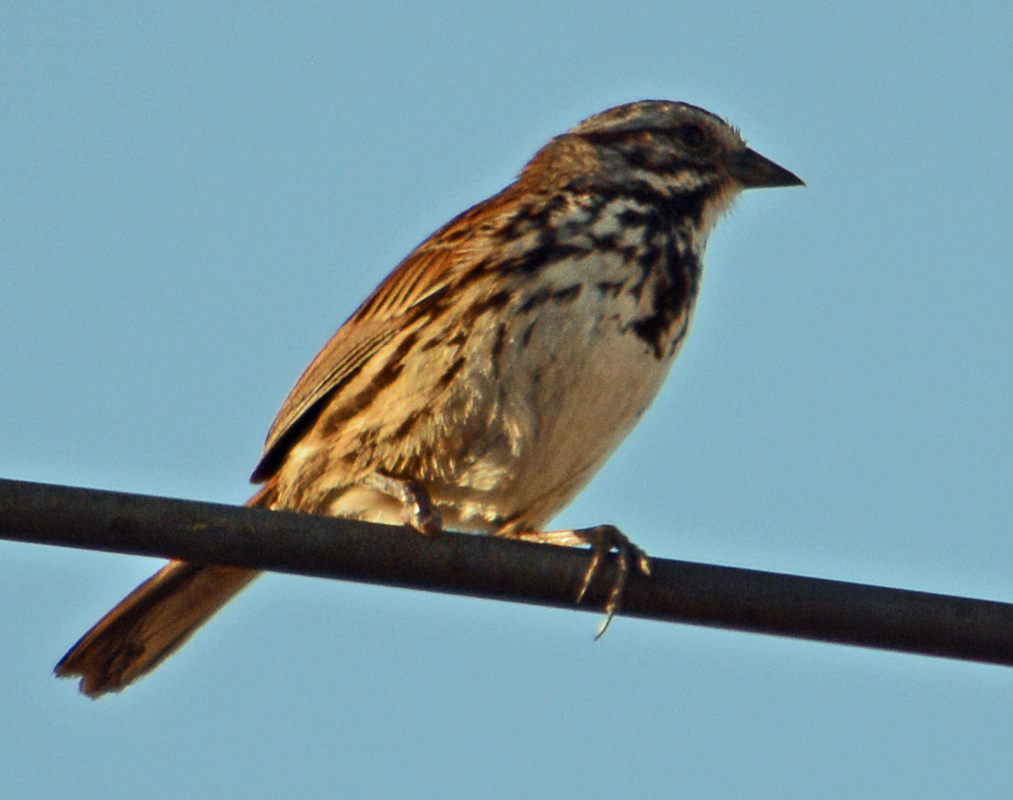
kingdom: Animalia
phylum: Chordata
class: Aves
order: Passeriformes
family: Passerellidae
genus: Melospiza
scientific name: Melospiza melodia
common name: Song sparrow
